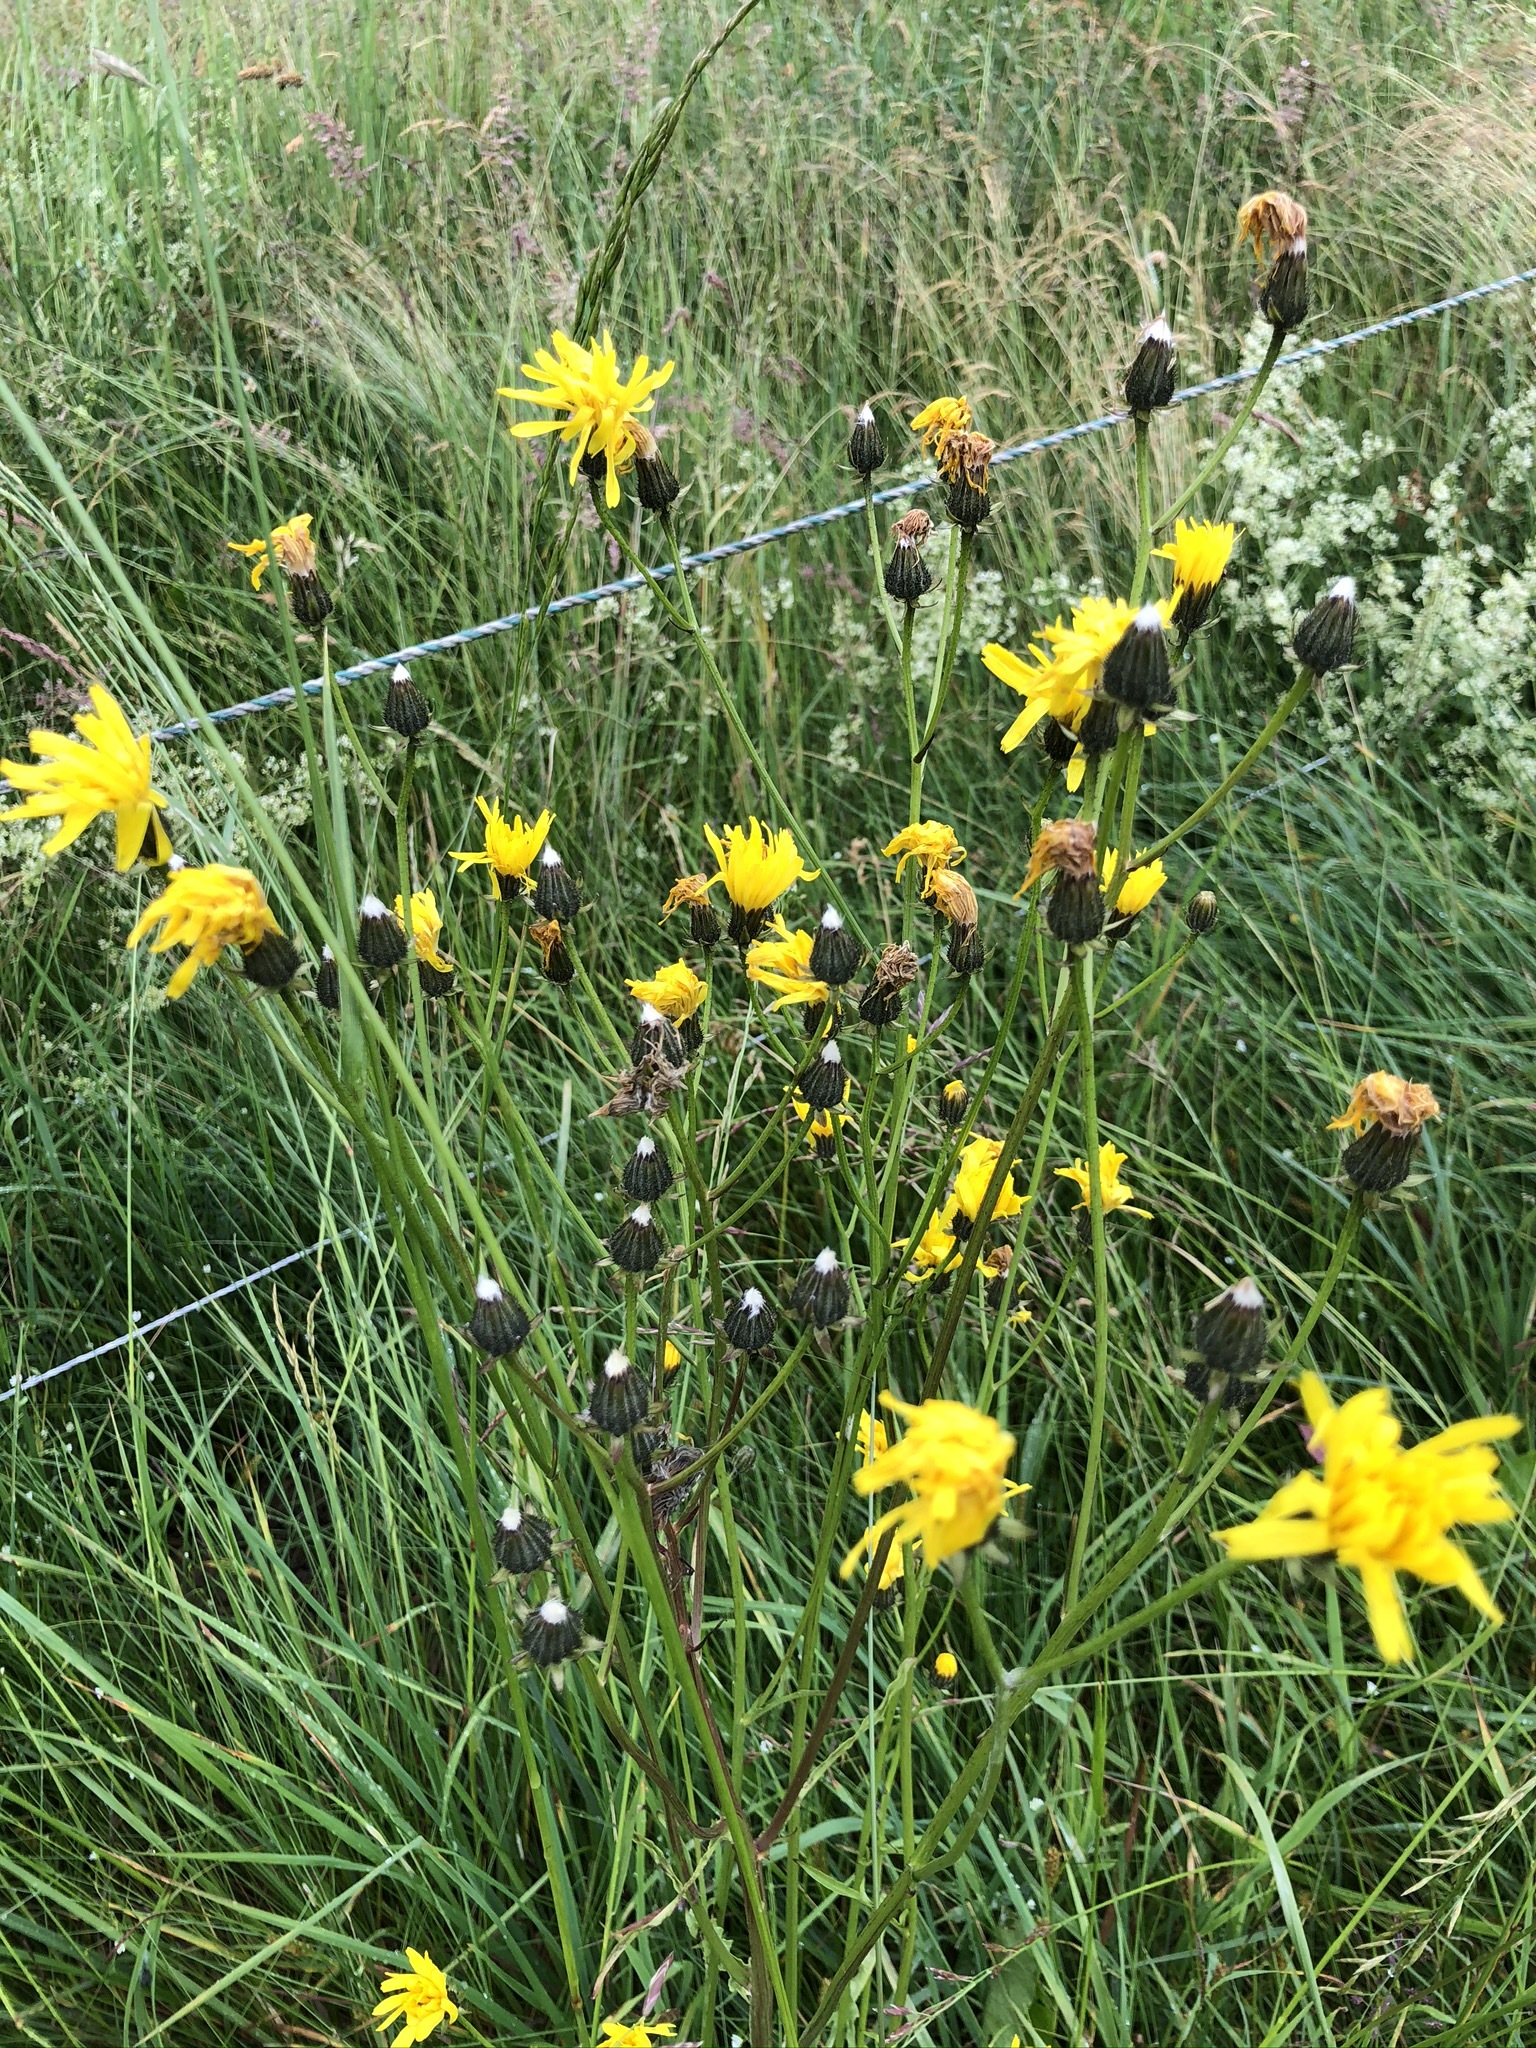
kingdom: Plantae
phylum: Tracheophyta
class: Magnoliopsida
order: Asterales
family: Asteraceae
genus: Crepis
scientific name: Crepis biennis
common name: Rough hawk's-beard
